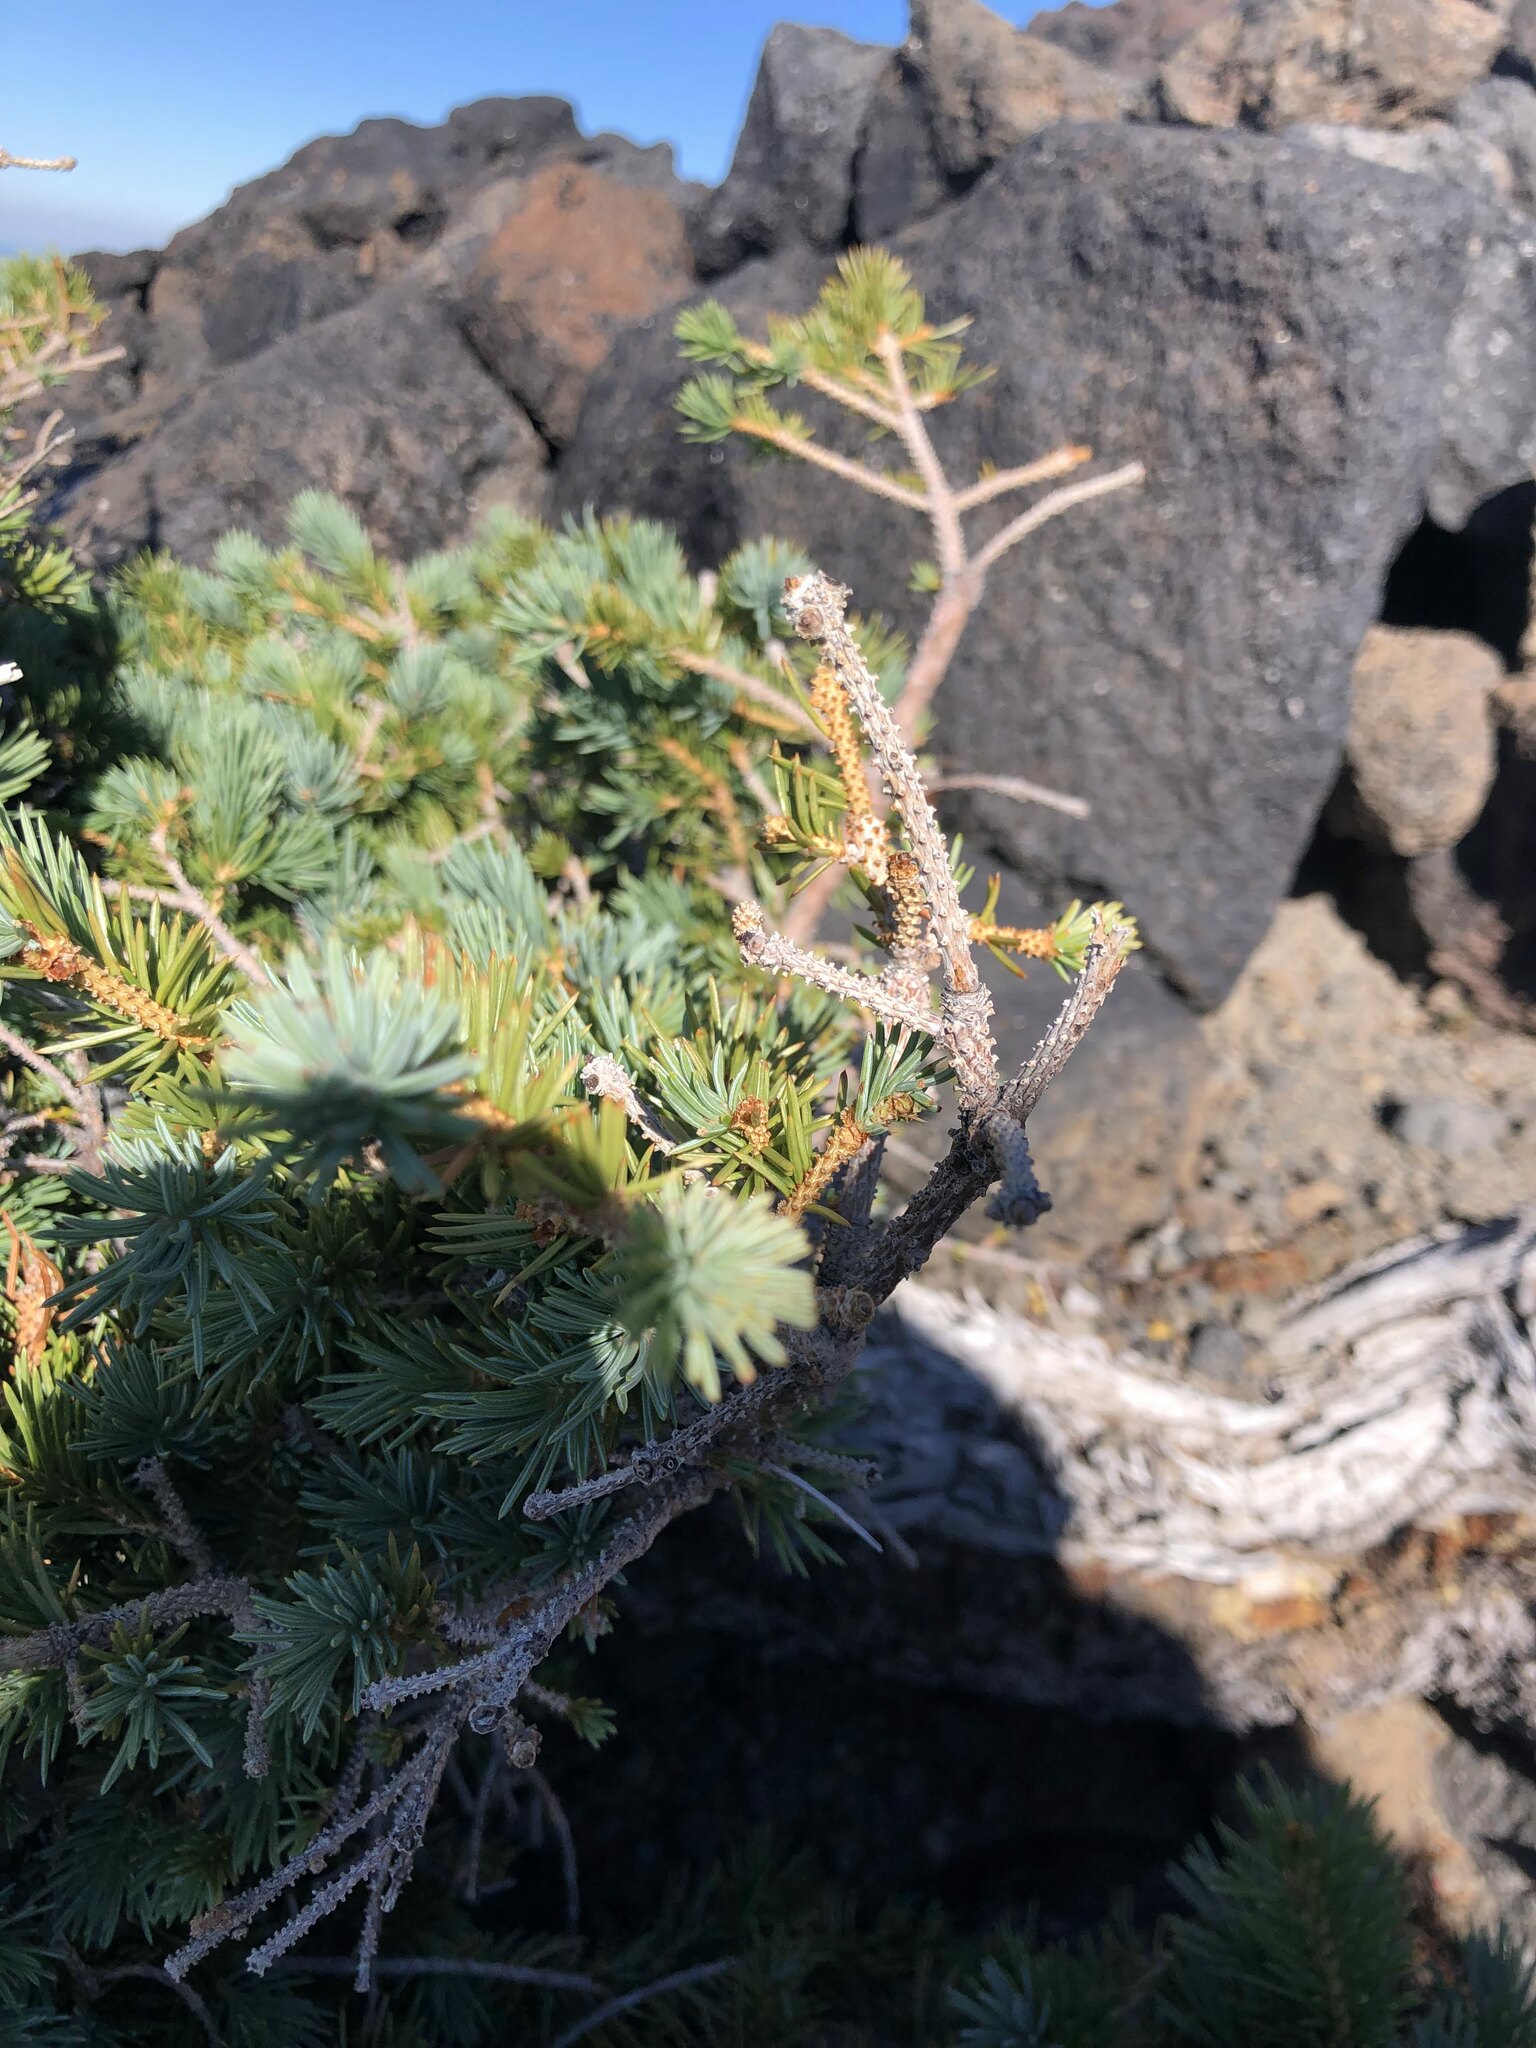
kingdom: Plantae
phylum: Tracheophyta
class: Pinopsida
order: Pinales
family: Pinaceae
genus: Picea
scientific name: Picea engelmannii
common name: Engelmann spruce
